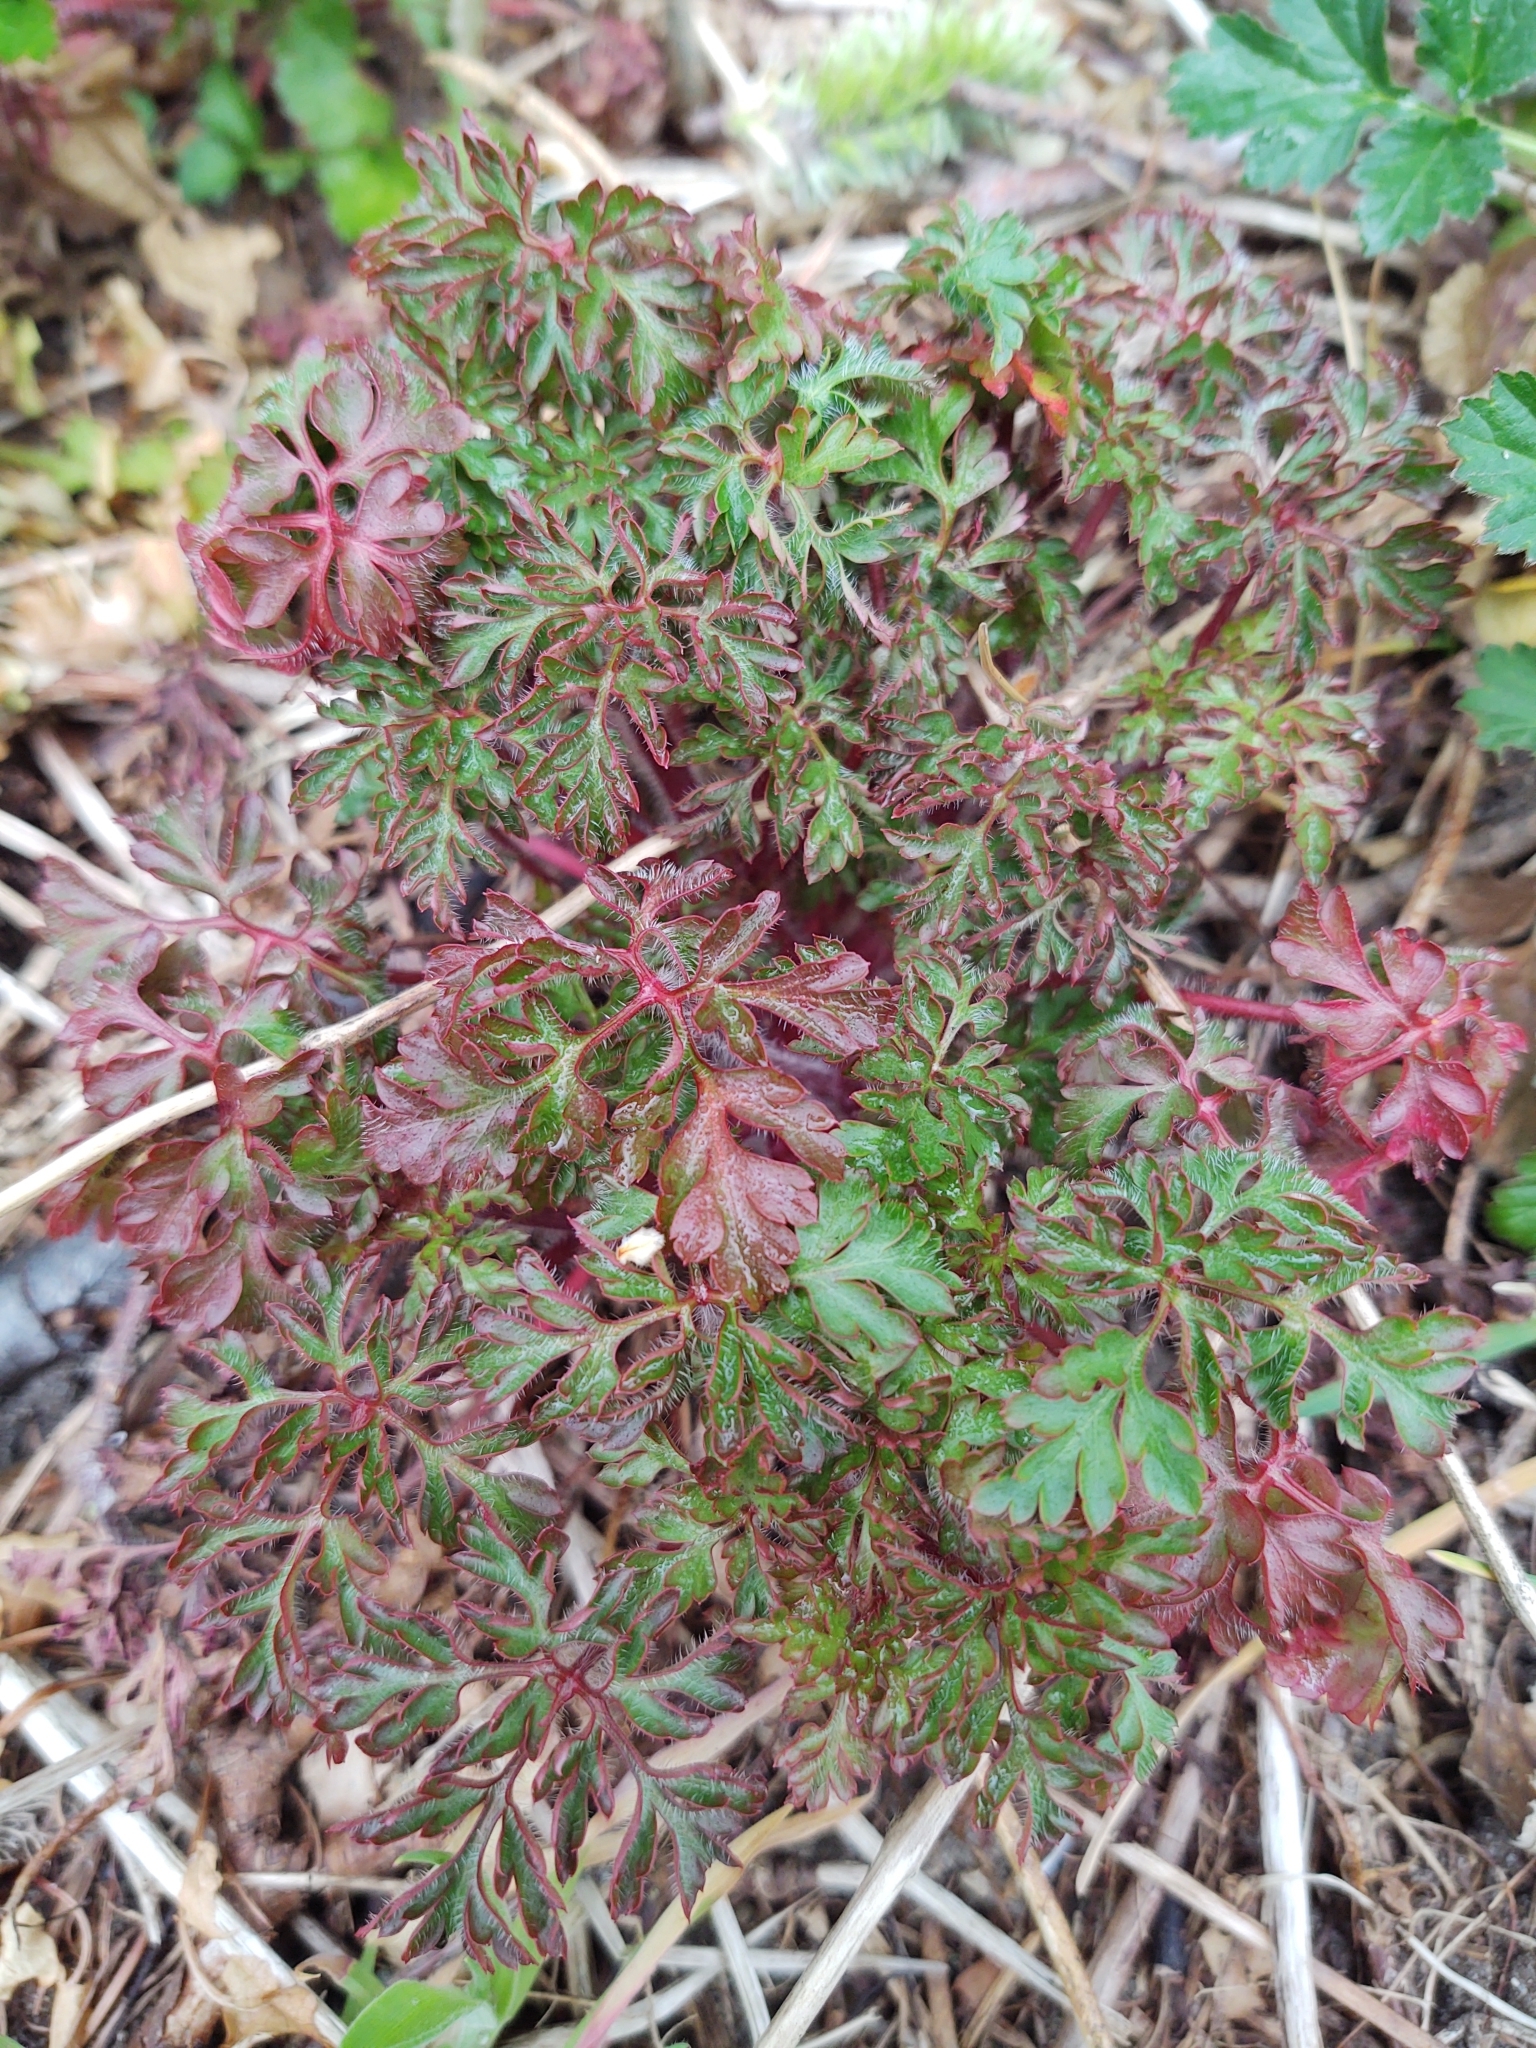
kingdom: Plantae
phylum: Tracheophyta
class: Magnoliopsida
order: Geraniales
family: Geraniaceae
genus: Geranium
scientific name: Geranium robertianum
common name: Herb-robert
